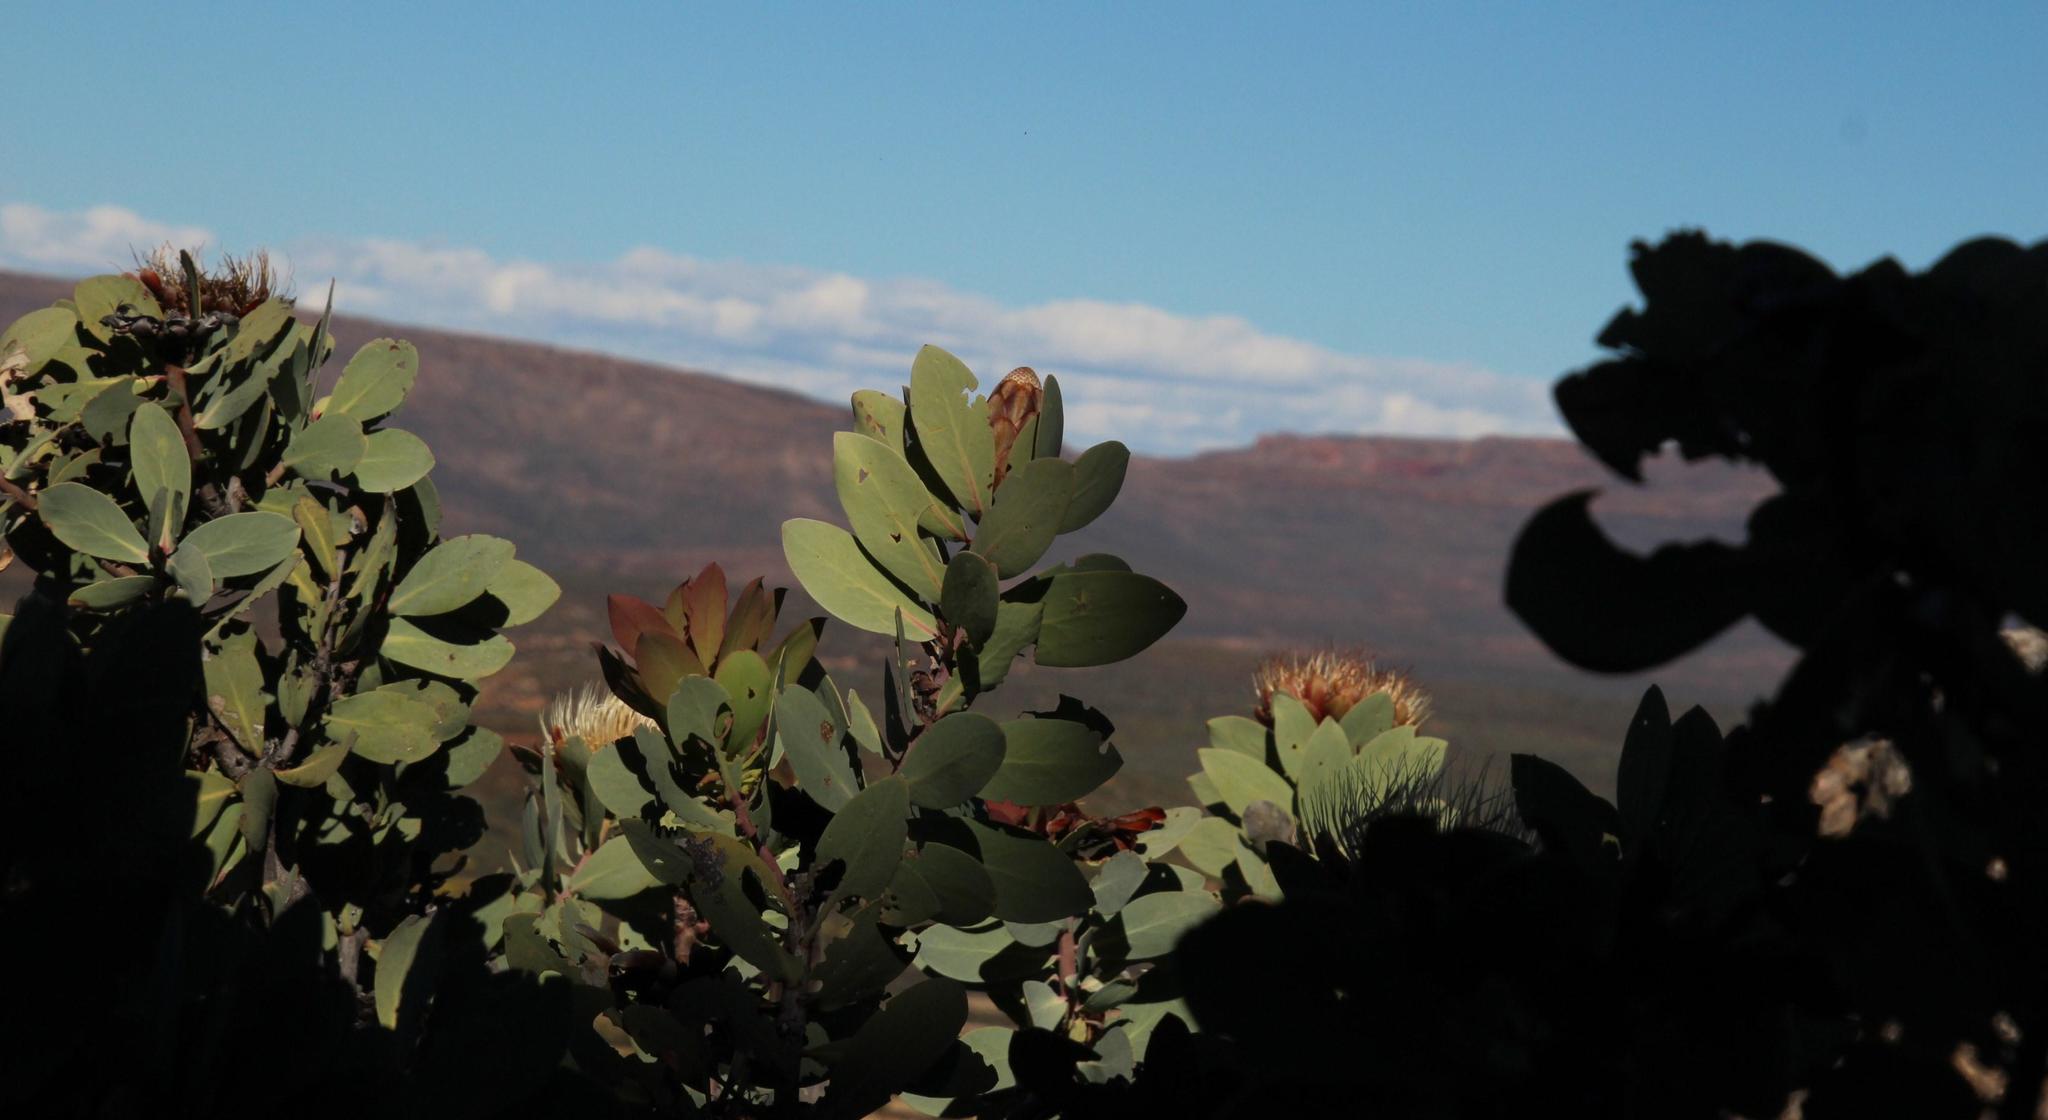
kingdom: Plantae
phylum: Tracheophyta
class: Magnoliopsida
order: Proteales
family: Proteaceae
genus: Protea
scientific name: Protea
